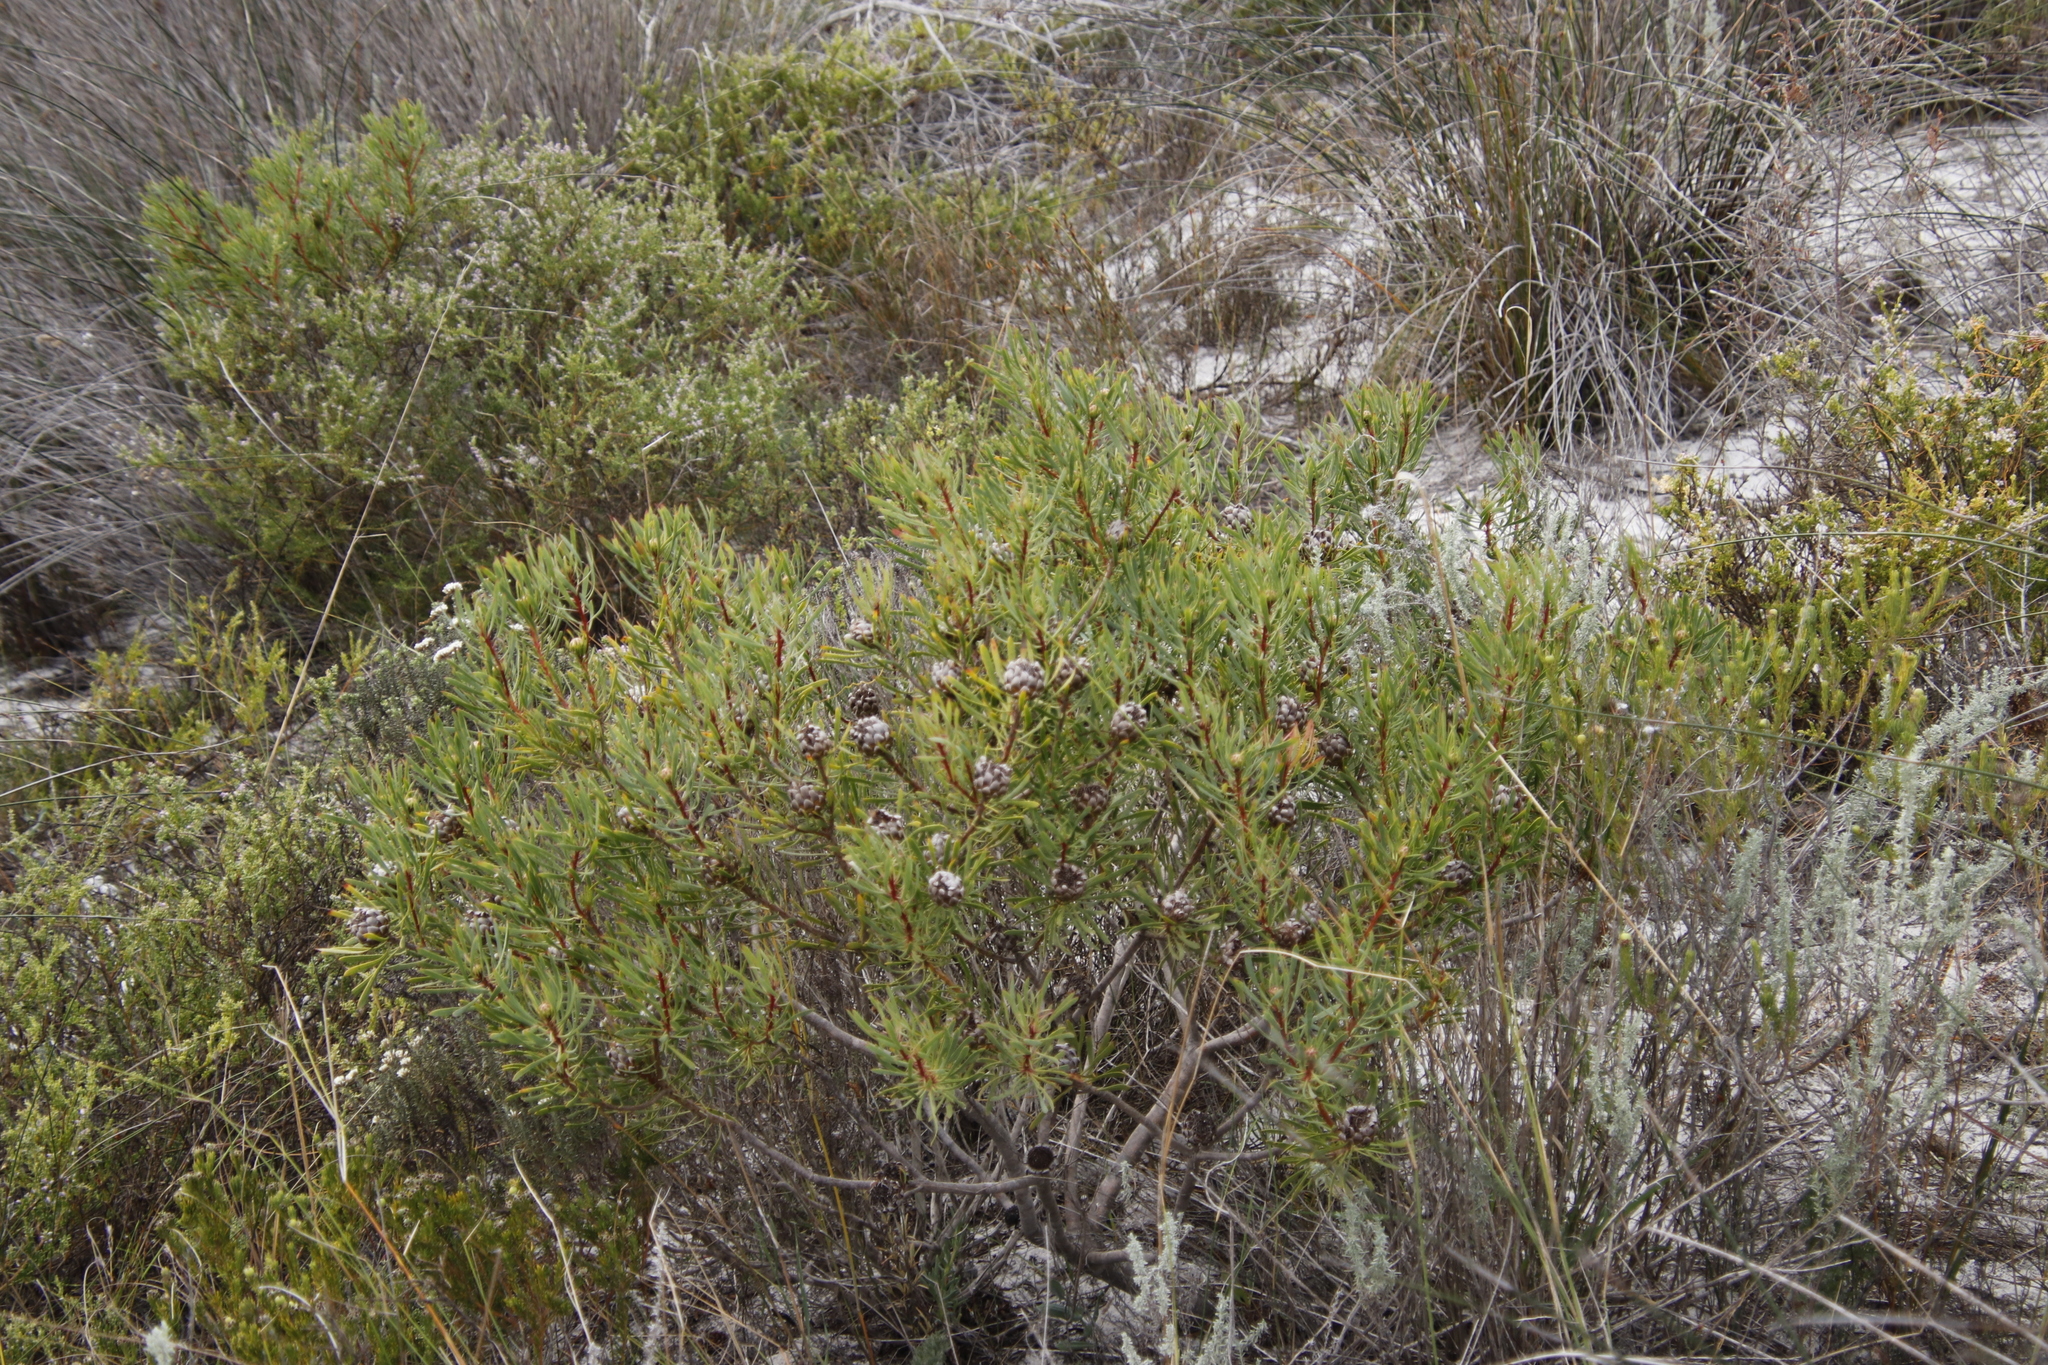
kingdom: Plantae
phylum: Tracheophyta
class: Magnoliopsida
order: Proteales
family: Proteaceae
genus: Protea
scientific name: Protea scolymocephala
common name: Thistle sugarbush
